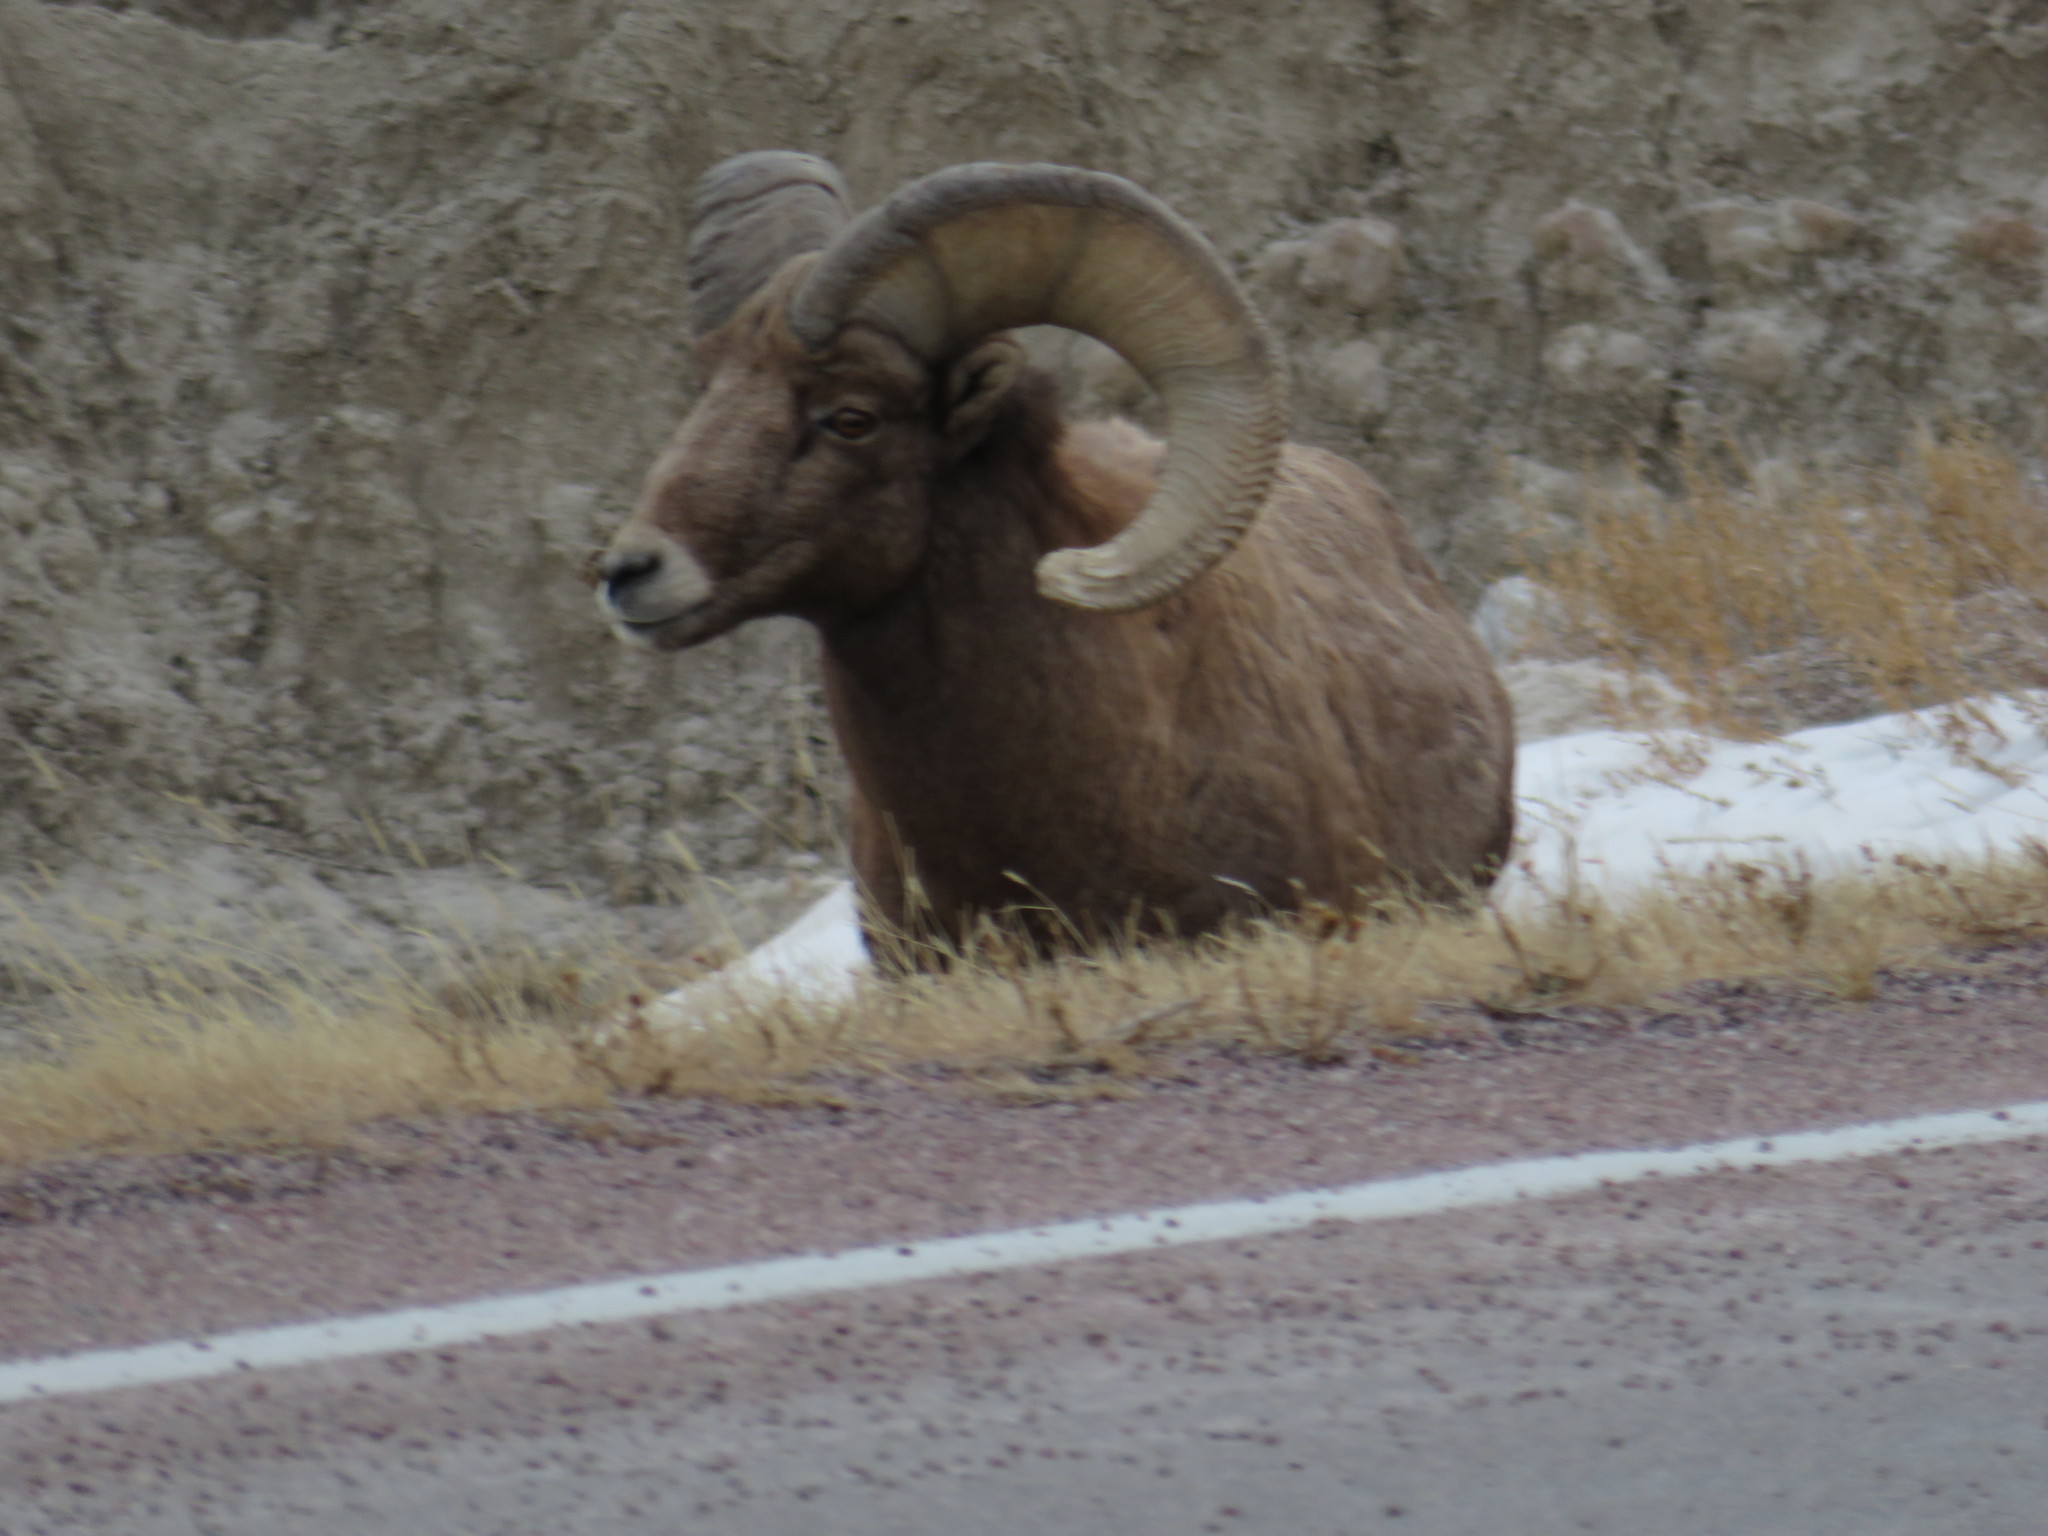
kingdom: Animalia
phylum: Chordata
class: Mammalia
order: Artiodactyla
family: Bovidae
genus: Ovis
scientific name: Ovis canadensis
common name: Bighorn sheep
